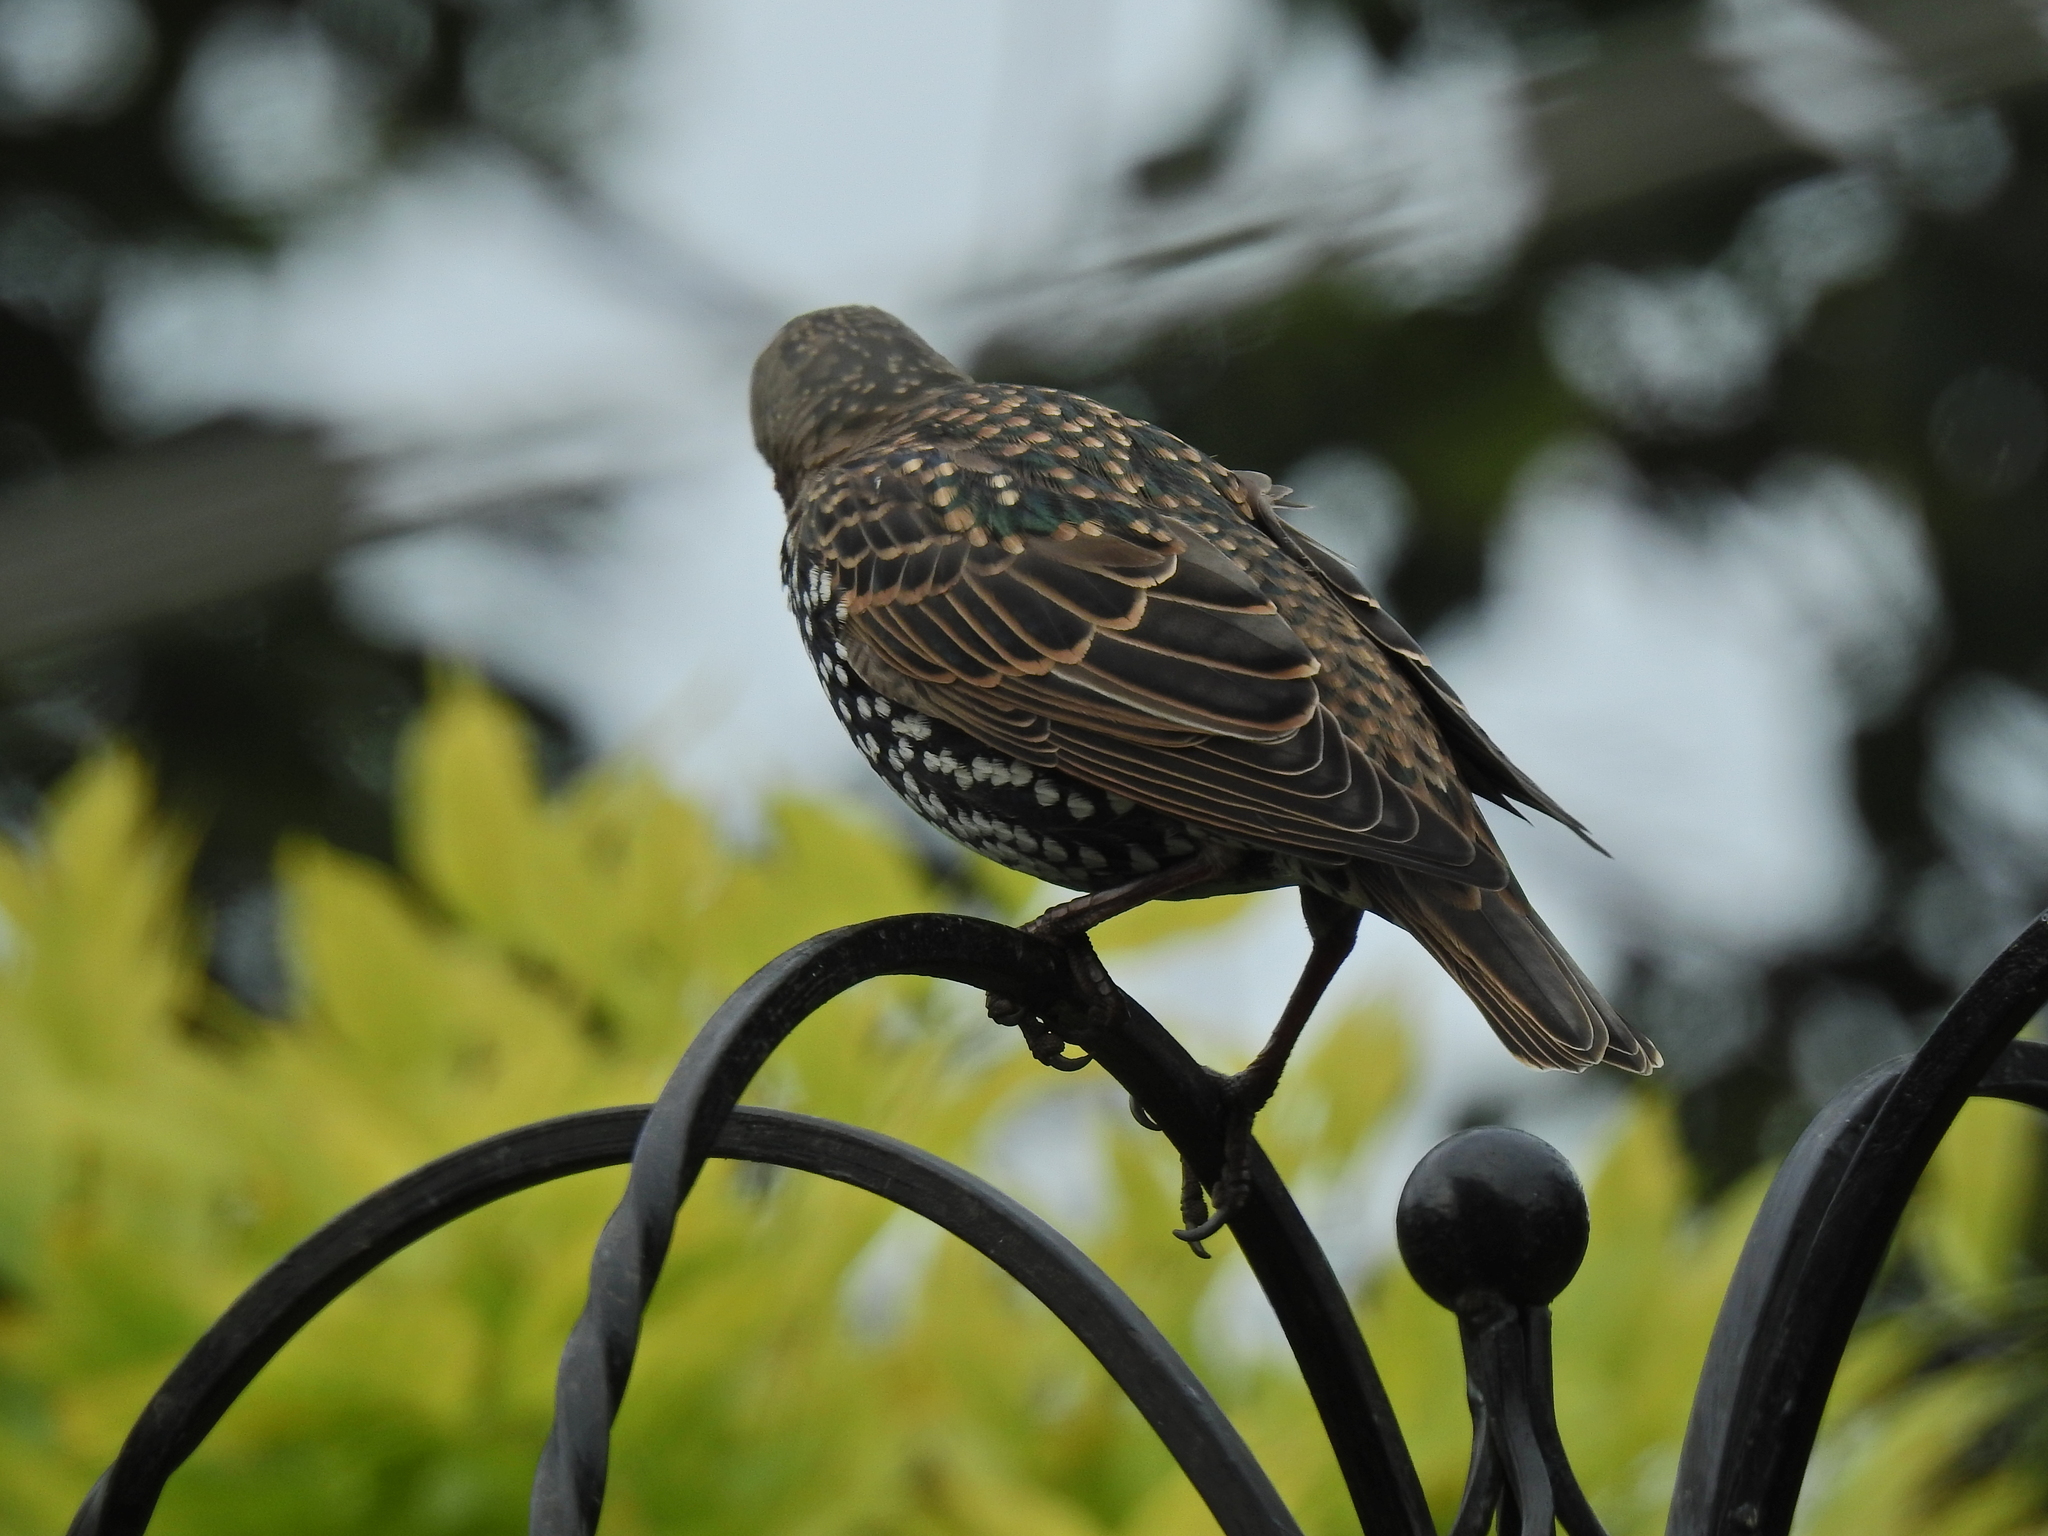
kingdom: Animalia
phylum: Chordata
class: Aves
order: Passeriformes
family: Sturnidae
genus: Sturnus
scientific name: Sturnus vulgaris
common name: Common starling
